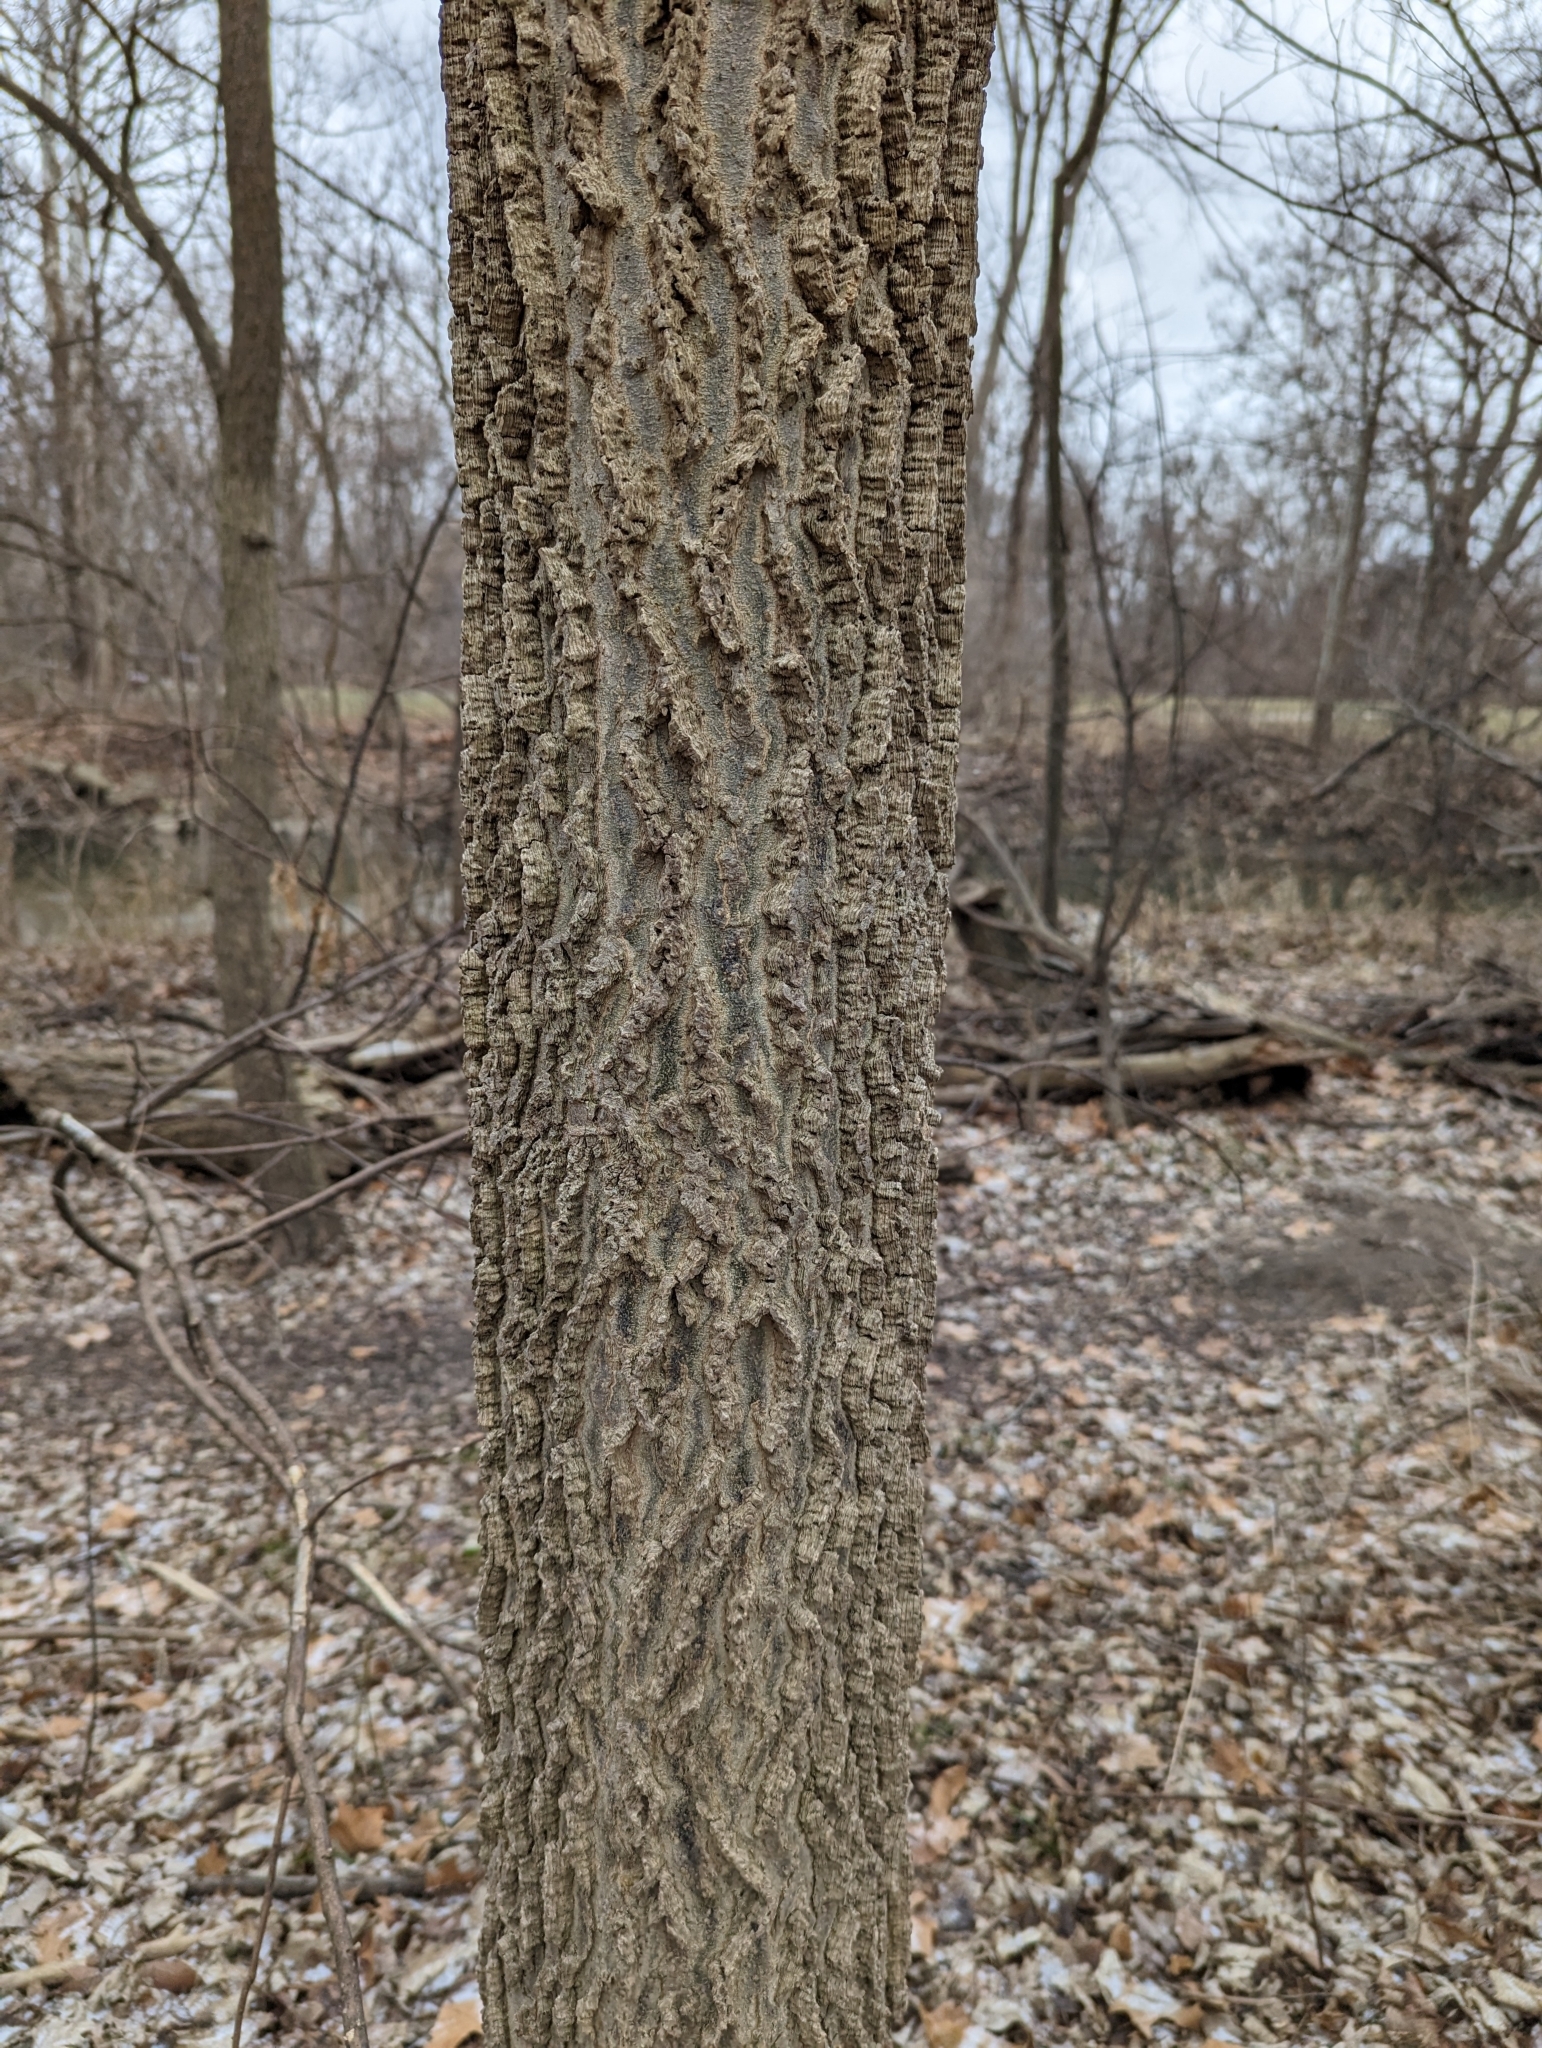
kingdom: Plantae
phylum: Tracheophyta
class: Magnoliopsida
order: Rosales
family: Cannabaceae
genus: Celtis
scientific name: Celtis occidentalis
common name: Common hackberry
